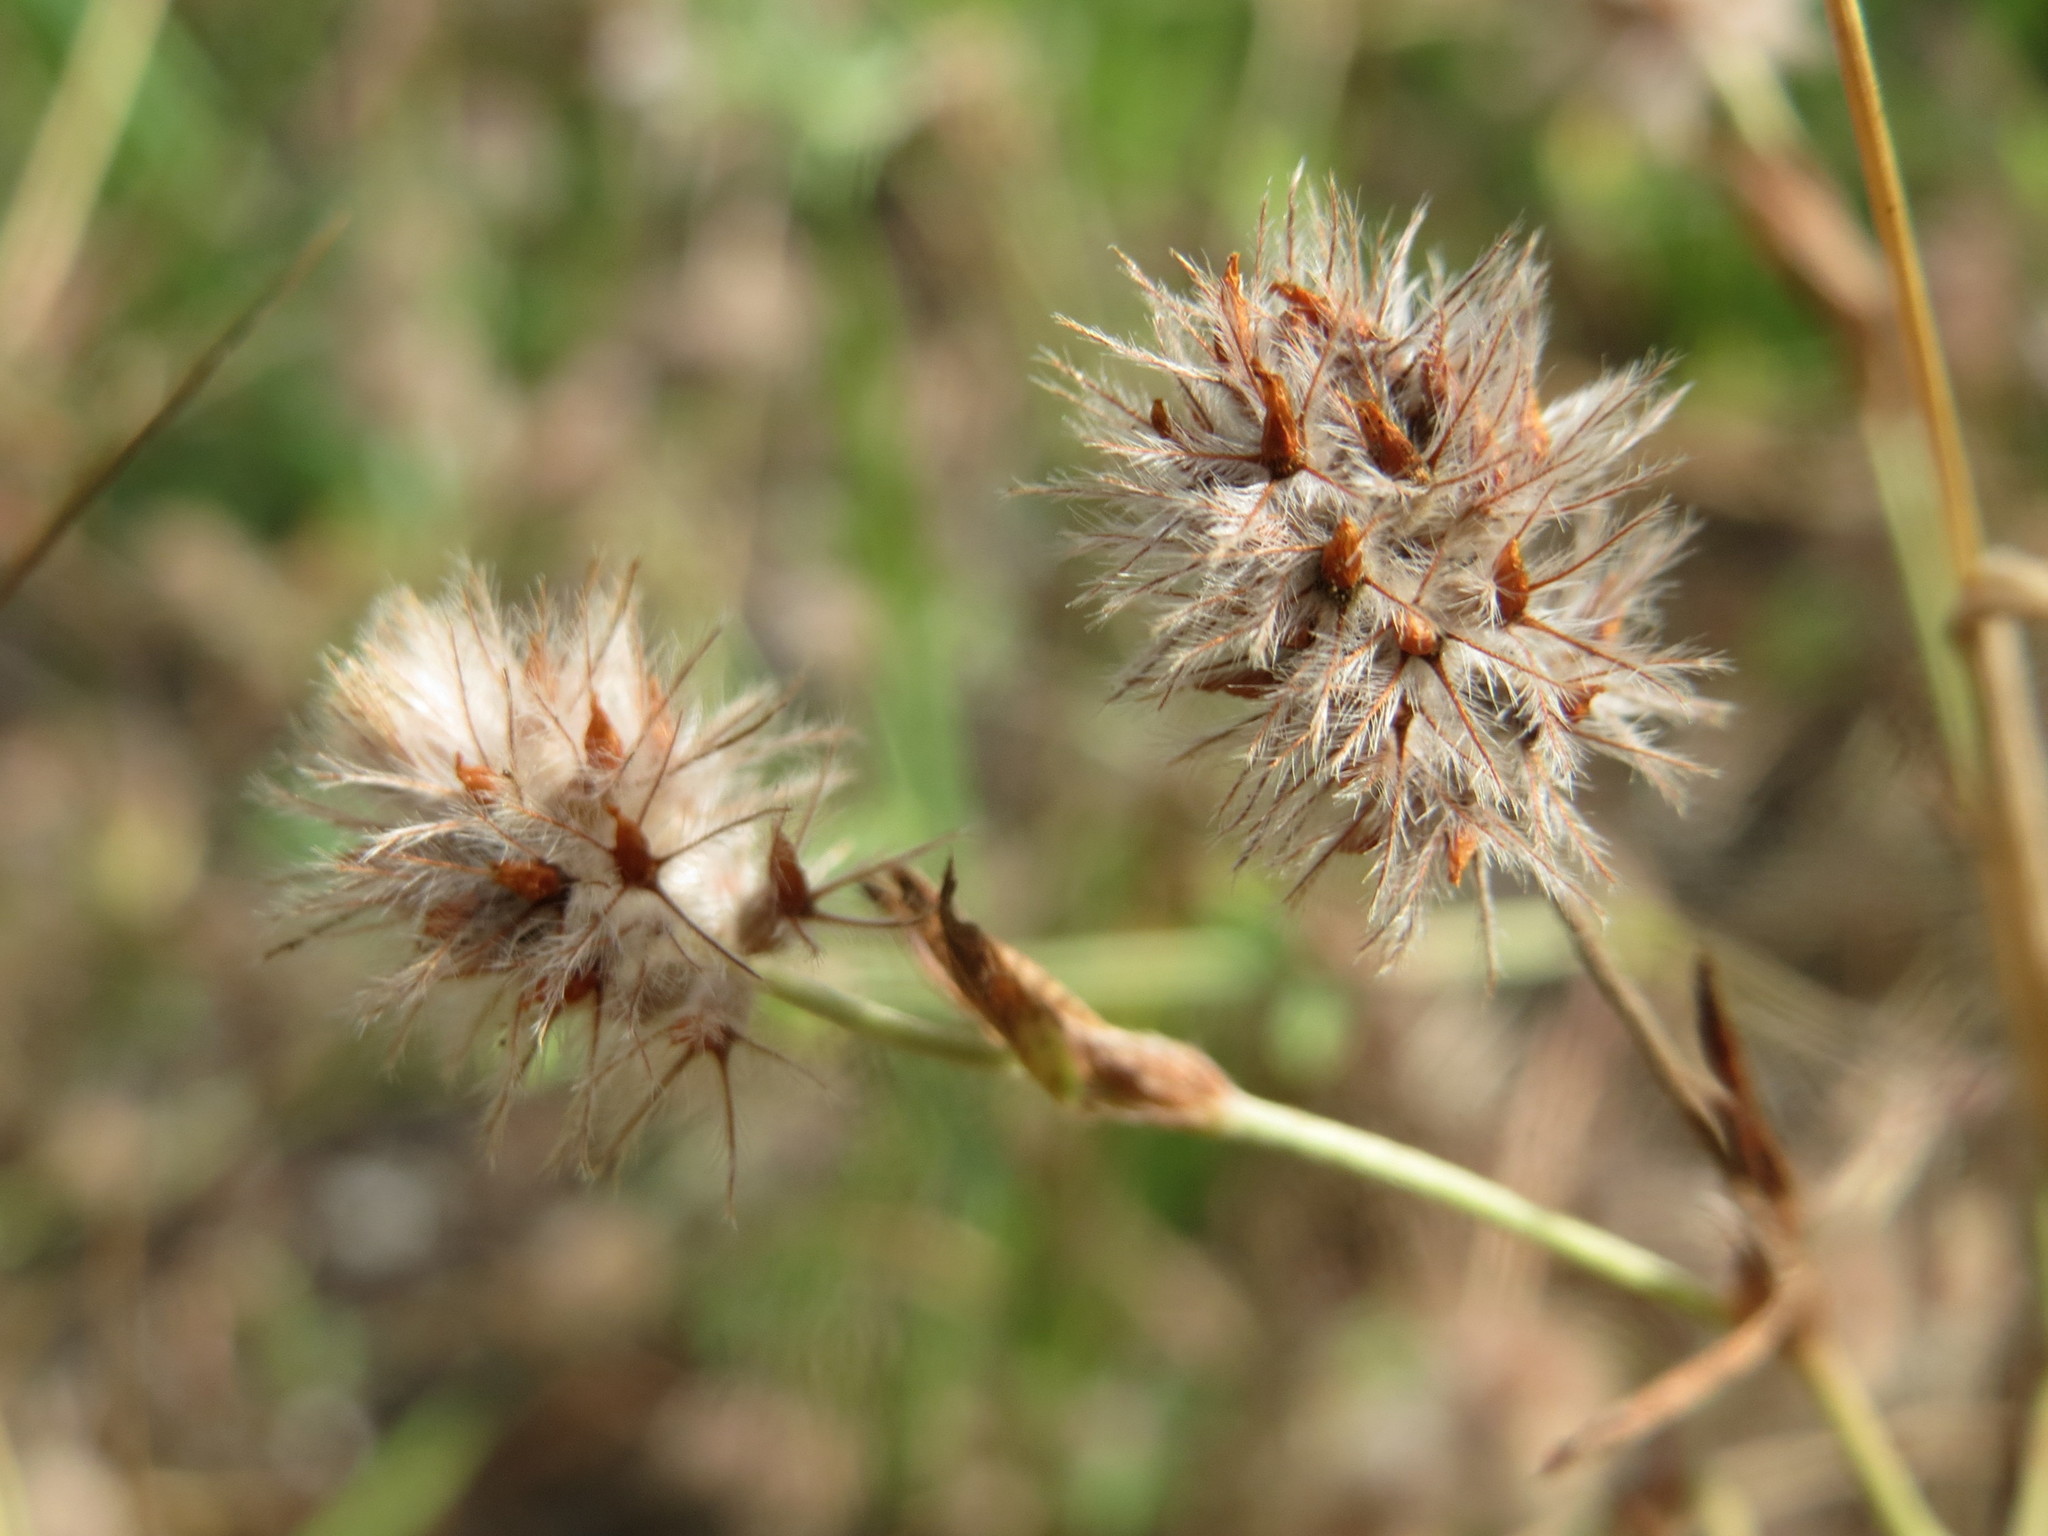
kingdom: Plantae
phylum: Tracheophyta
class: Magnoliopsida
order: Fabales
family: Fabaceae
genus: Trifolium
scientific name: Trifolium arvense
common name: Hare's-foot clover
